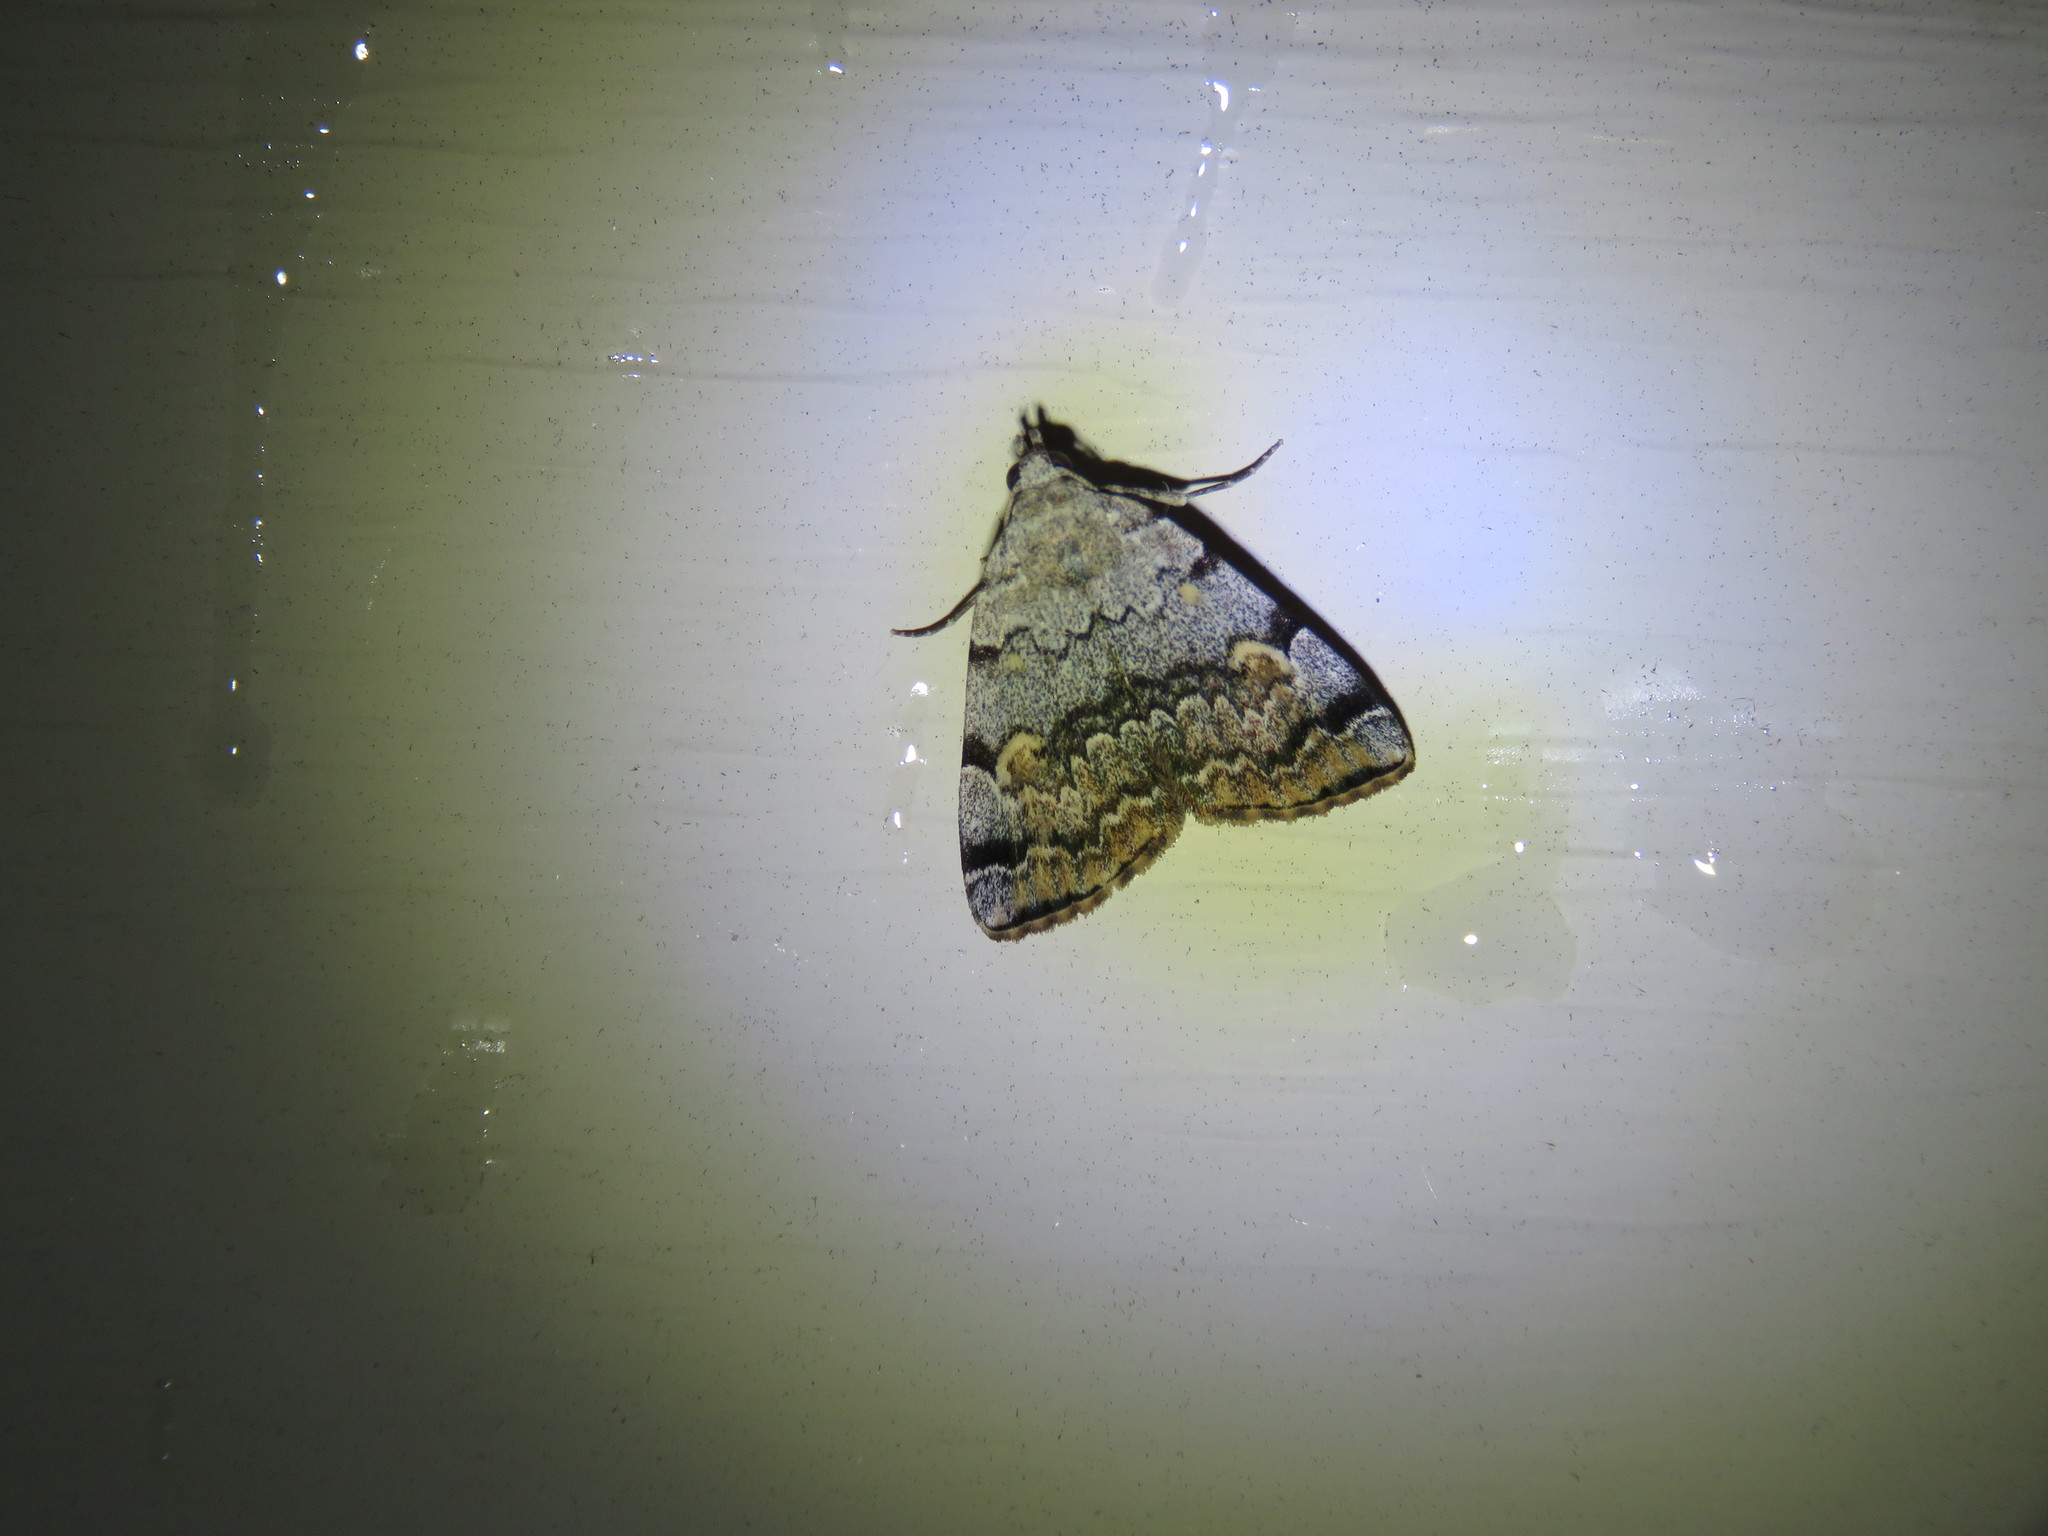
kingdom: Animalia
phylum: Arthropoda
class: Insecta
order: Lepidoptera
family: Erebidae
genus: Idia
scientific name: Idia americalis
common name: American idia moth
